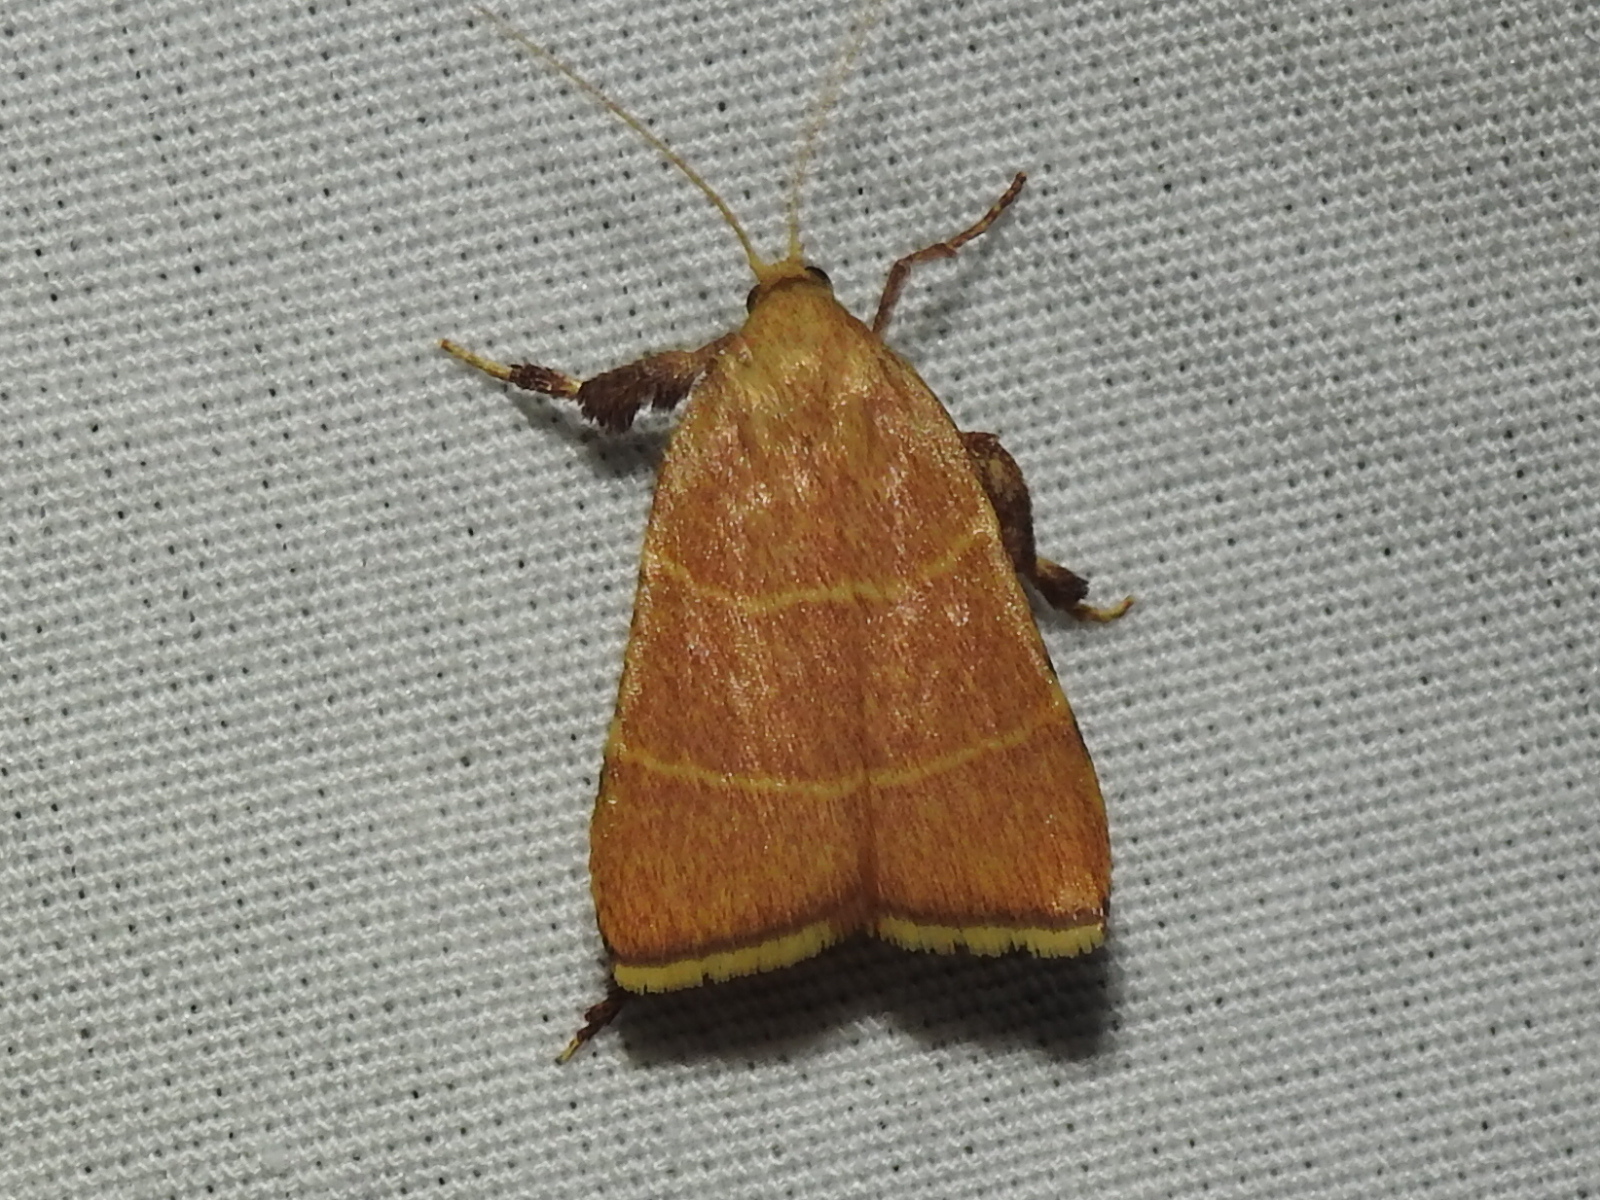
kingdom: Animalia
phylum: Arthropoda
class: Insecta
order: Lepidoptera
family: Pyralidae
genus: Parachma
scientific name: Parachma ochracealis
